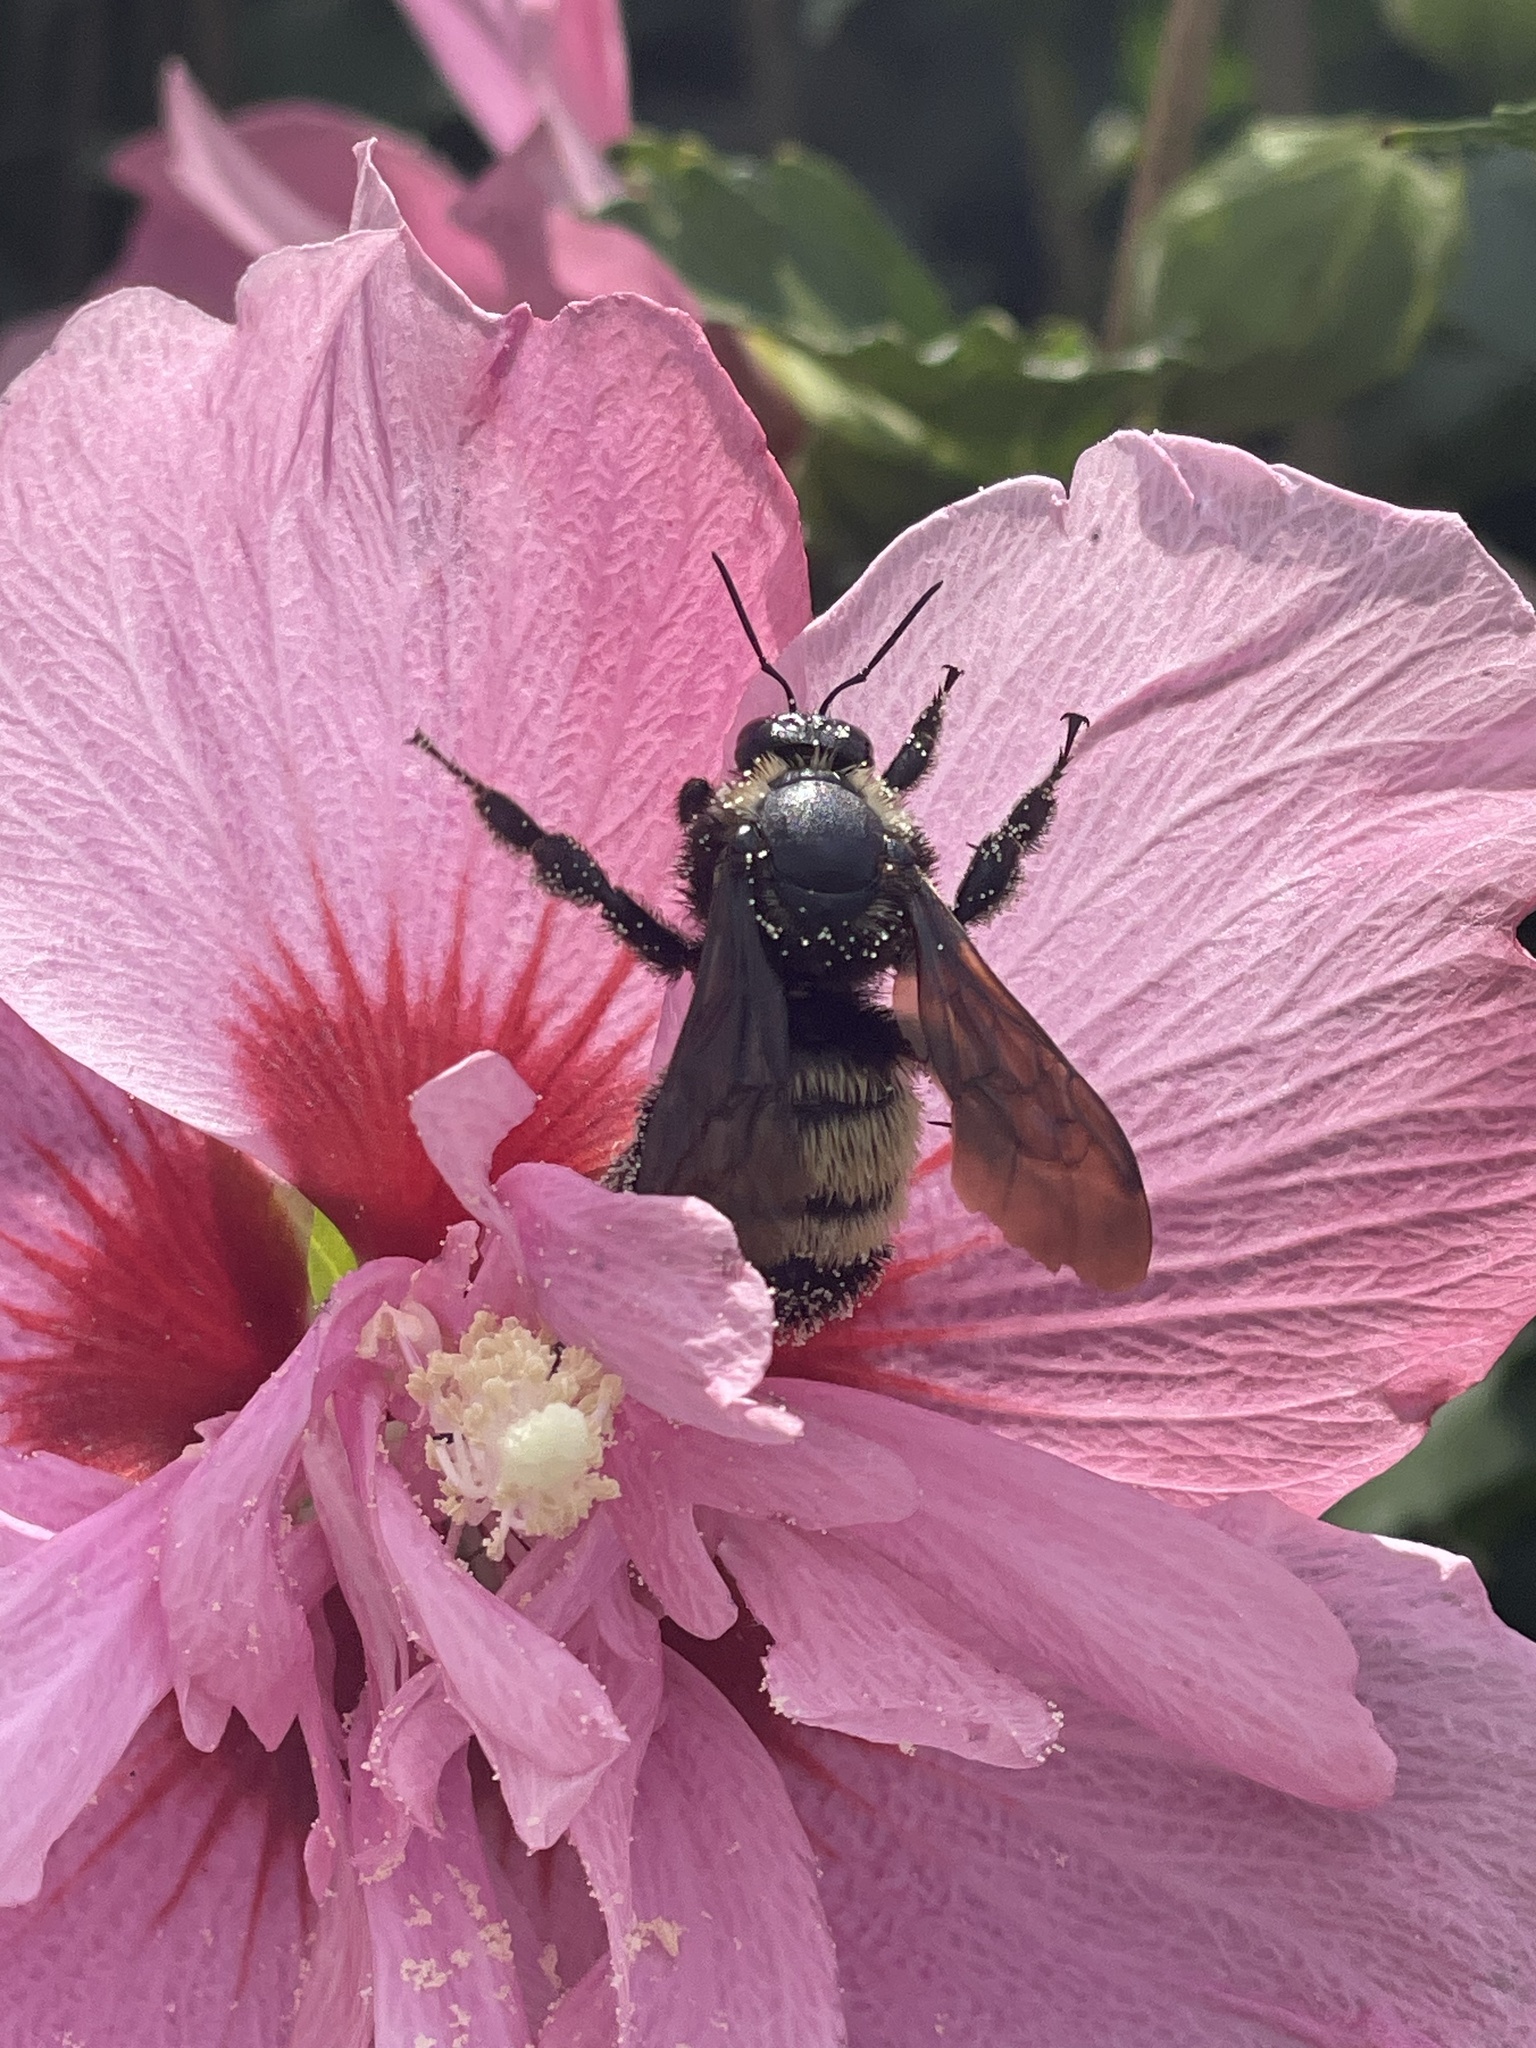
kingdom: Animalia
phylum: Arthropoda
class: Insecta
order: Hymenoptera
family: Apidae
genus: Bombus
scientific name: Bombus pensylvanicus
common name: Bumble bee
